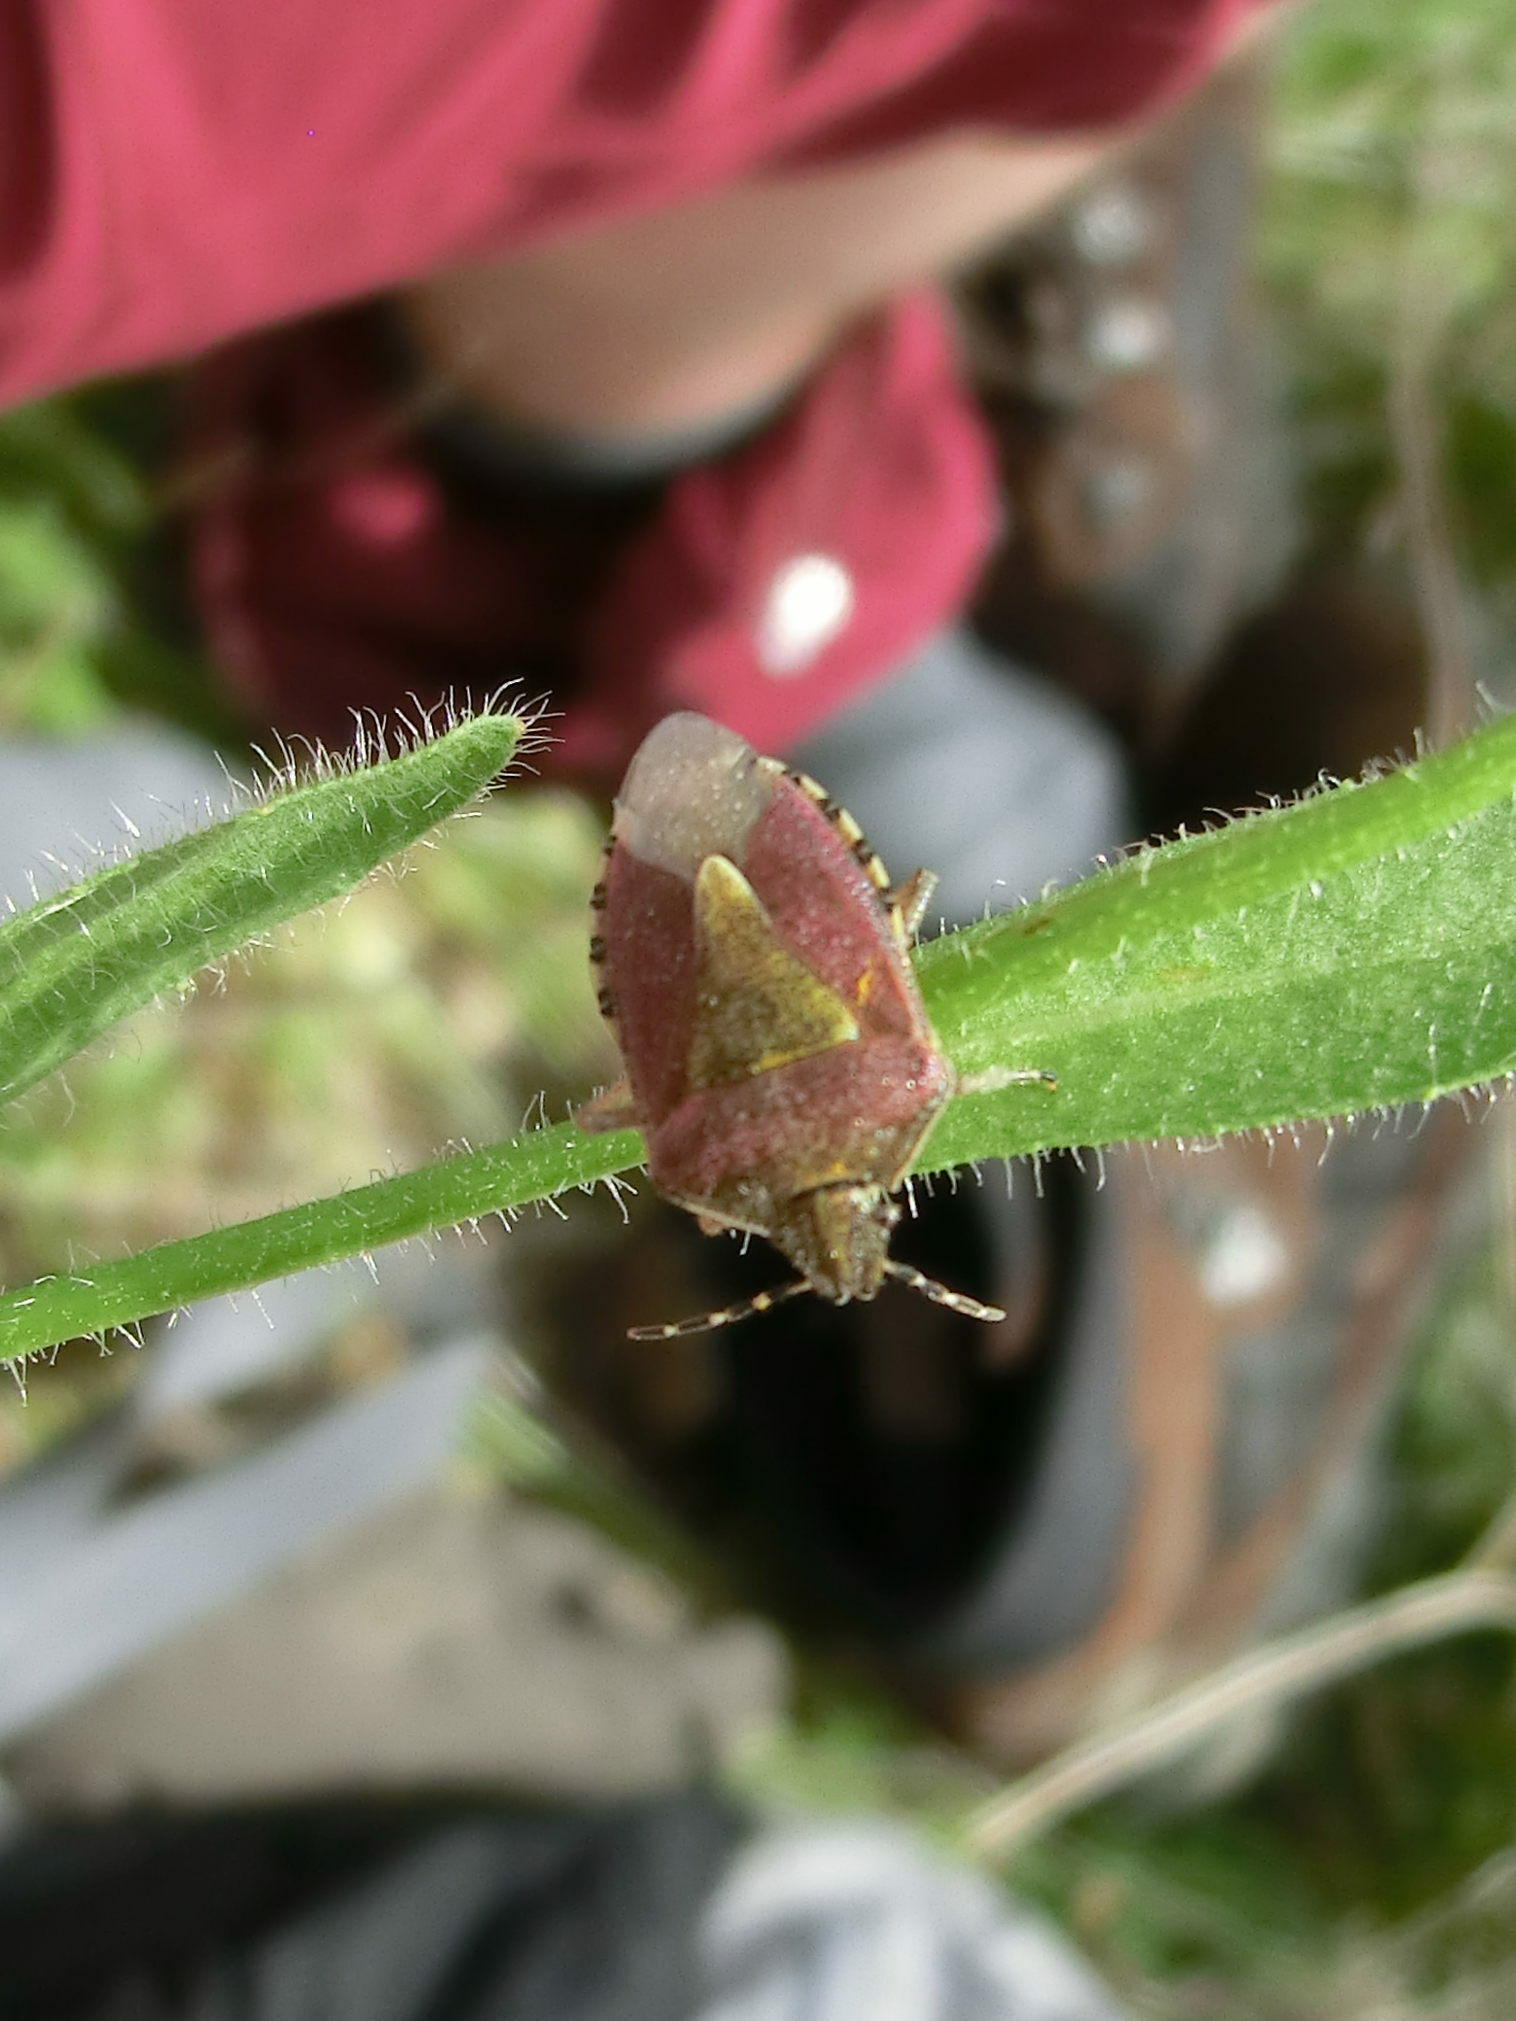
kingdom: Animalia
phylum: Arthropoda
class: Insecta
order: Hemiptera
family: Pentatomidae
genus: Dolycoris
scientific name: Dolycoris baccarum
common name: Sloe bug
